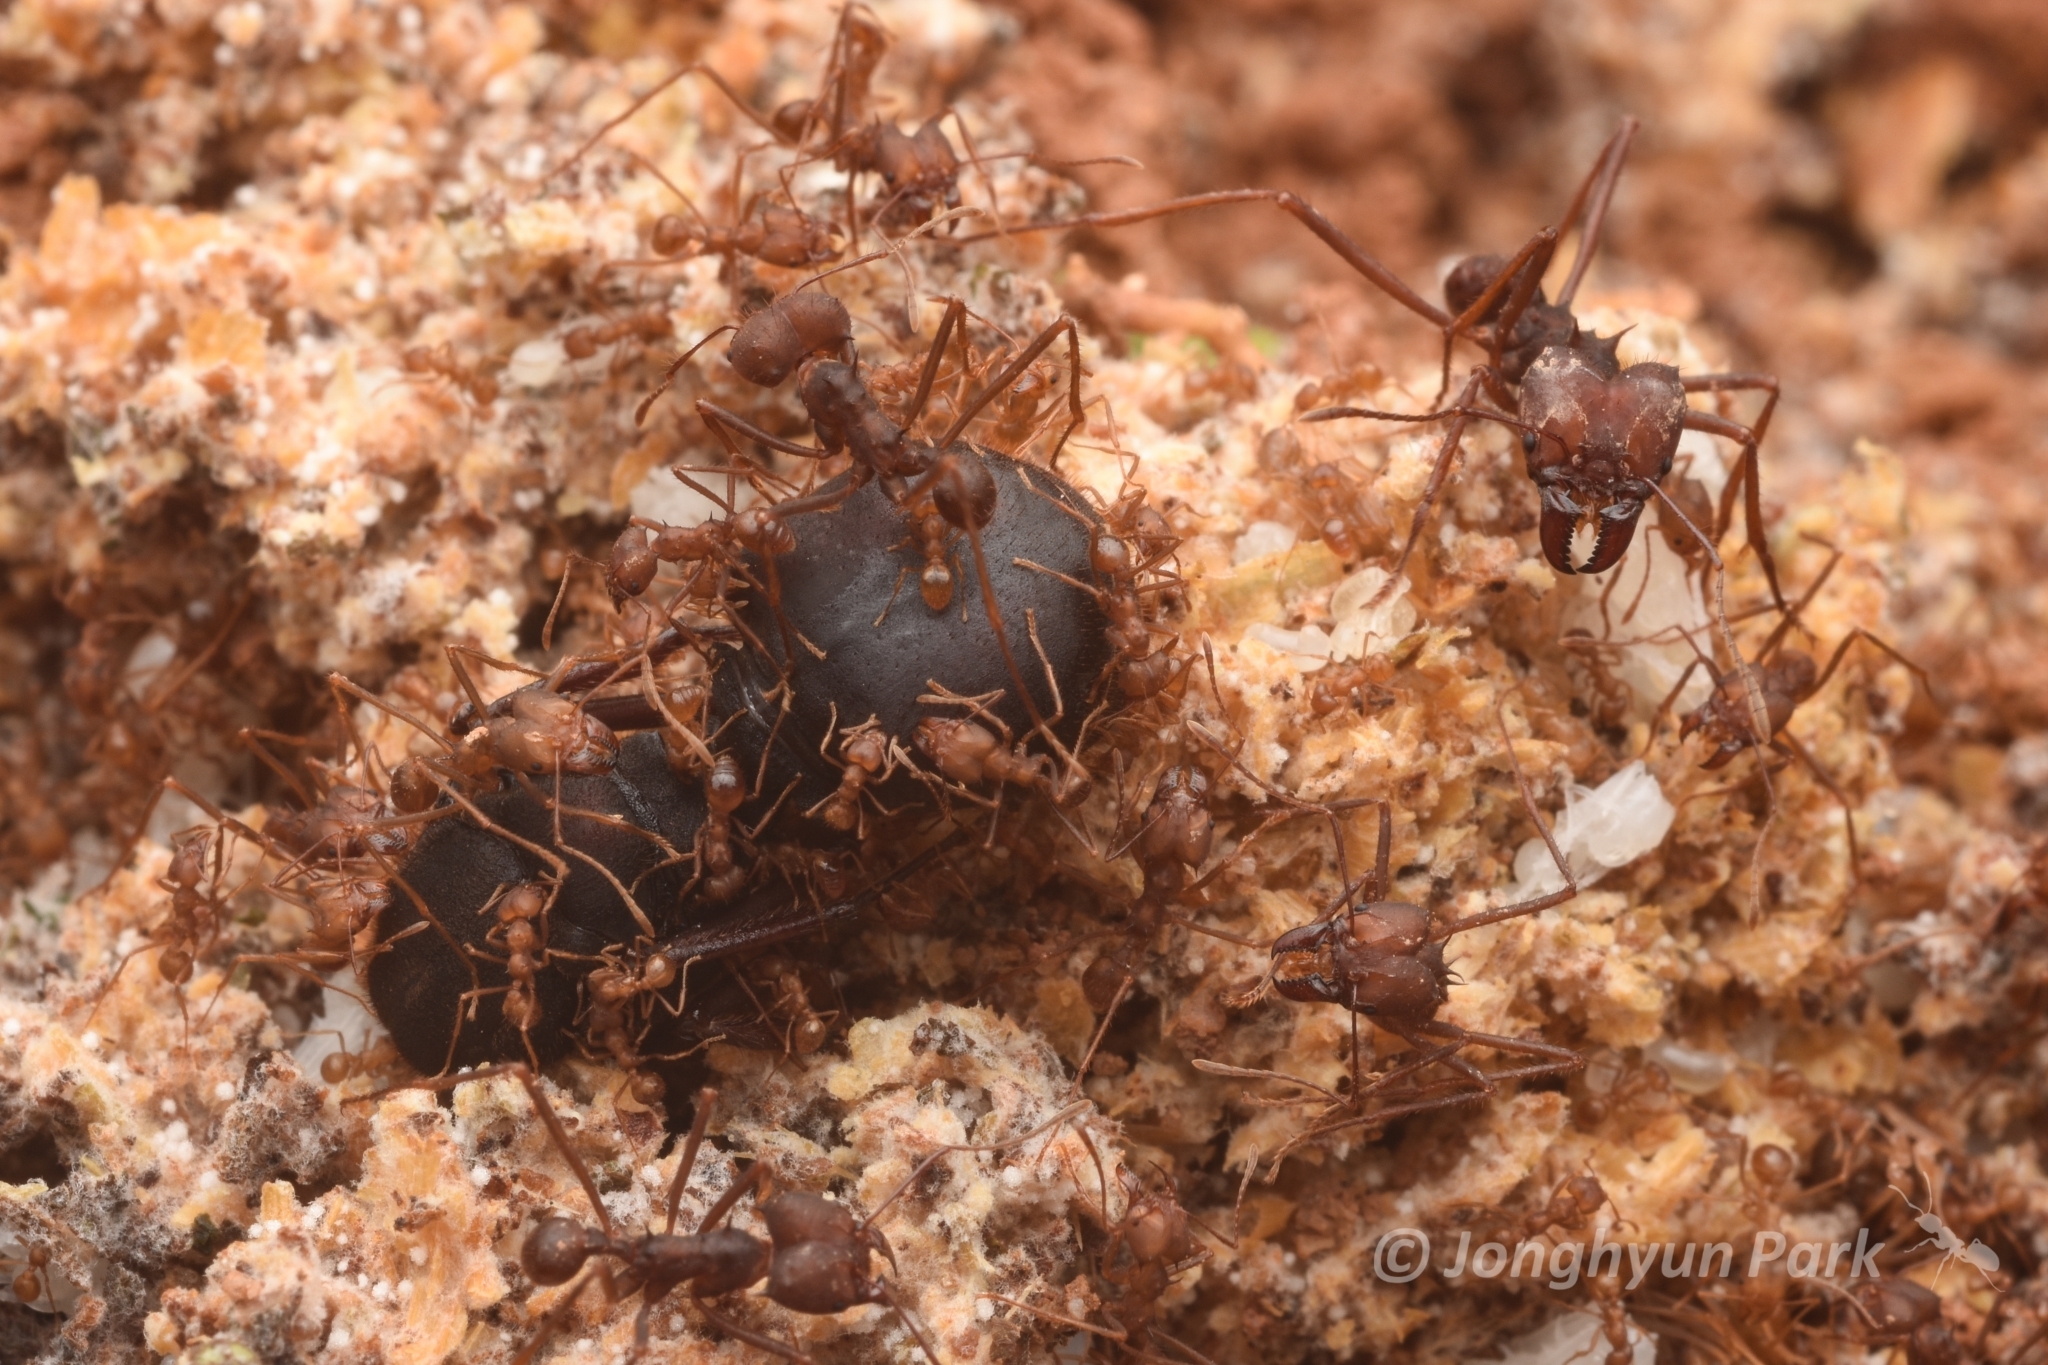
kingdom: Animalia
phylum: Arthropoda
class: Insecta
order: Hymenoptera
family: Formicidae
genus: Atta
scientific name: Atta sexdens
